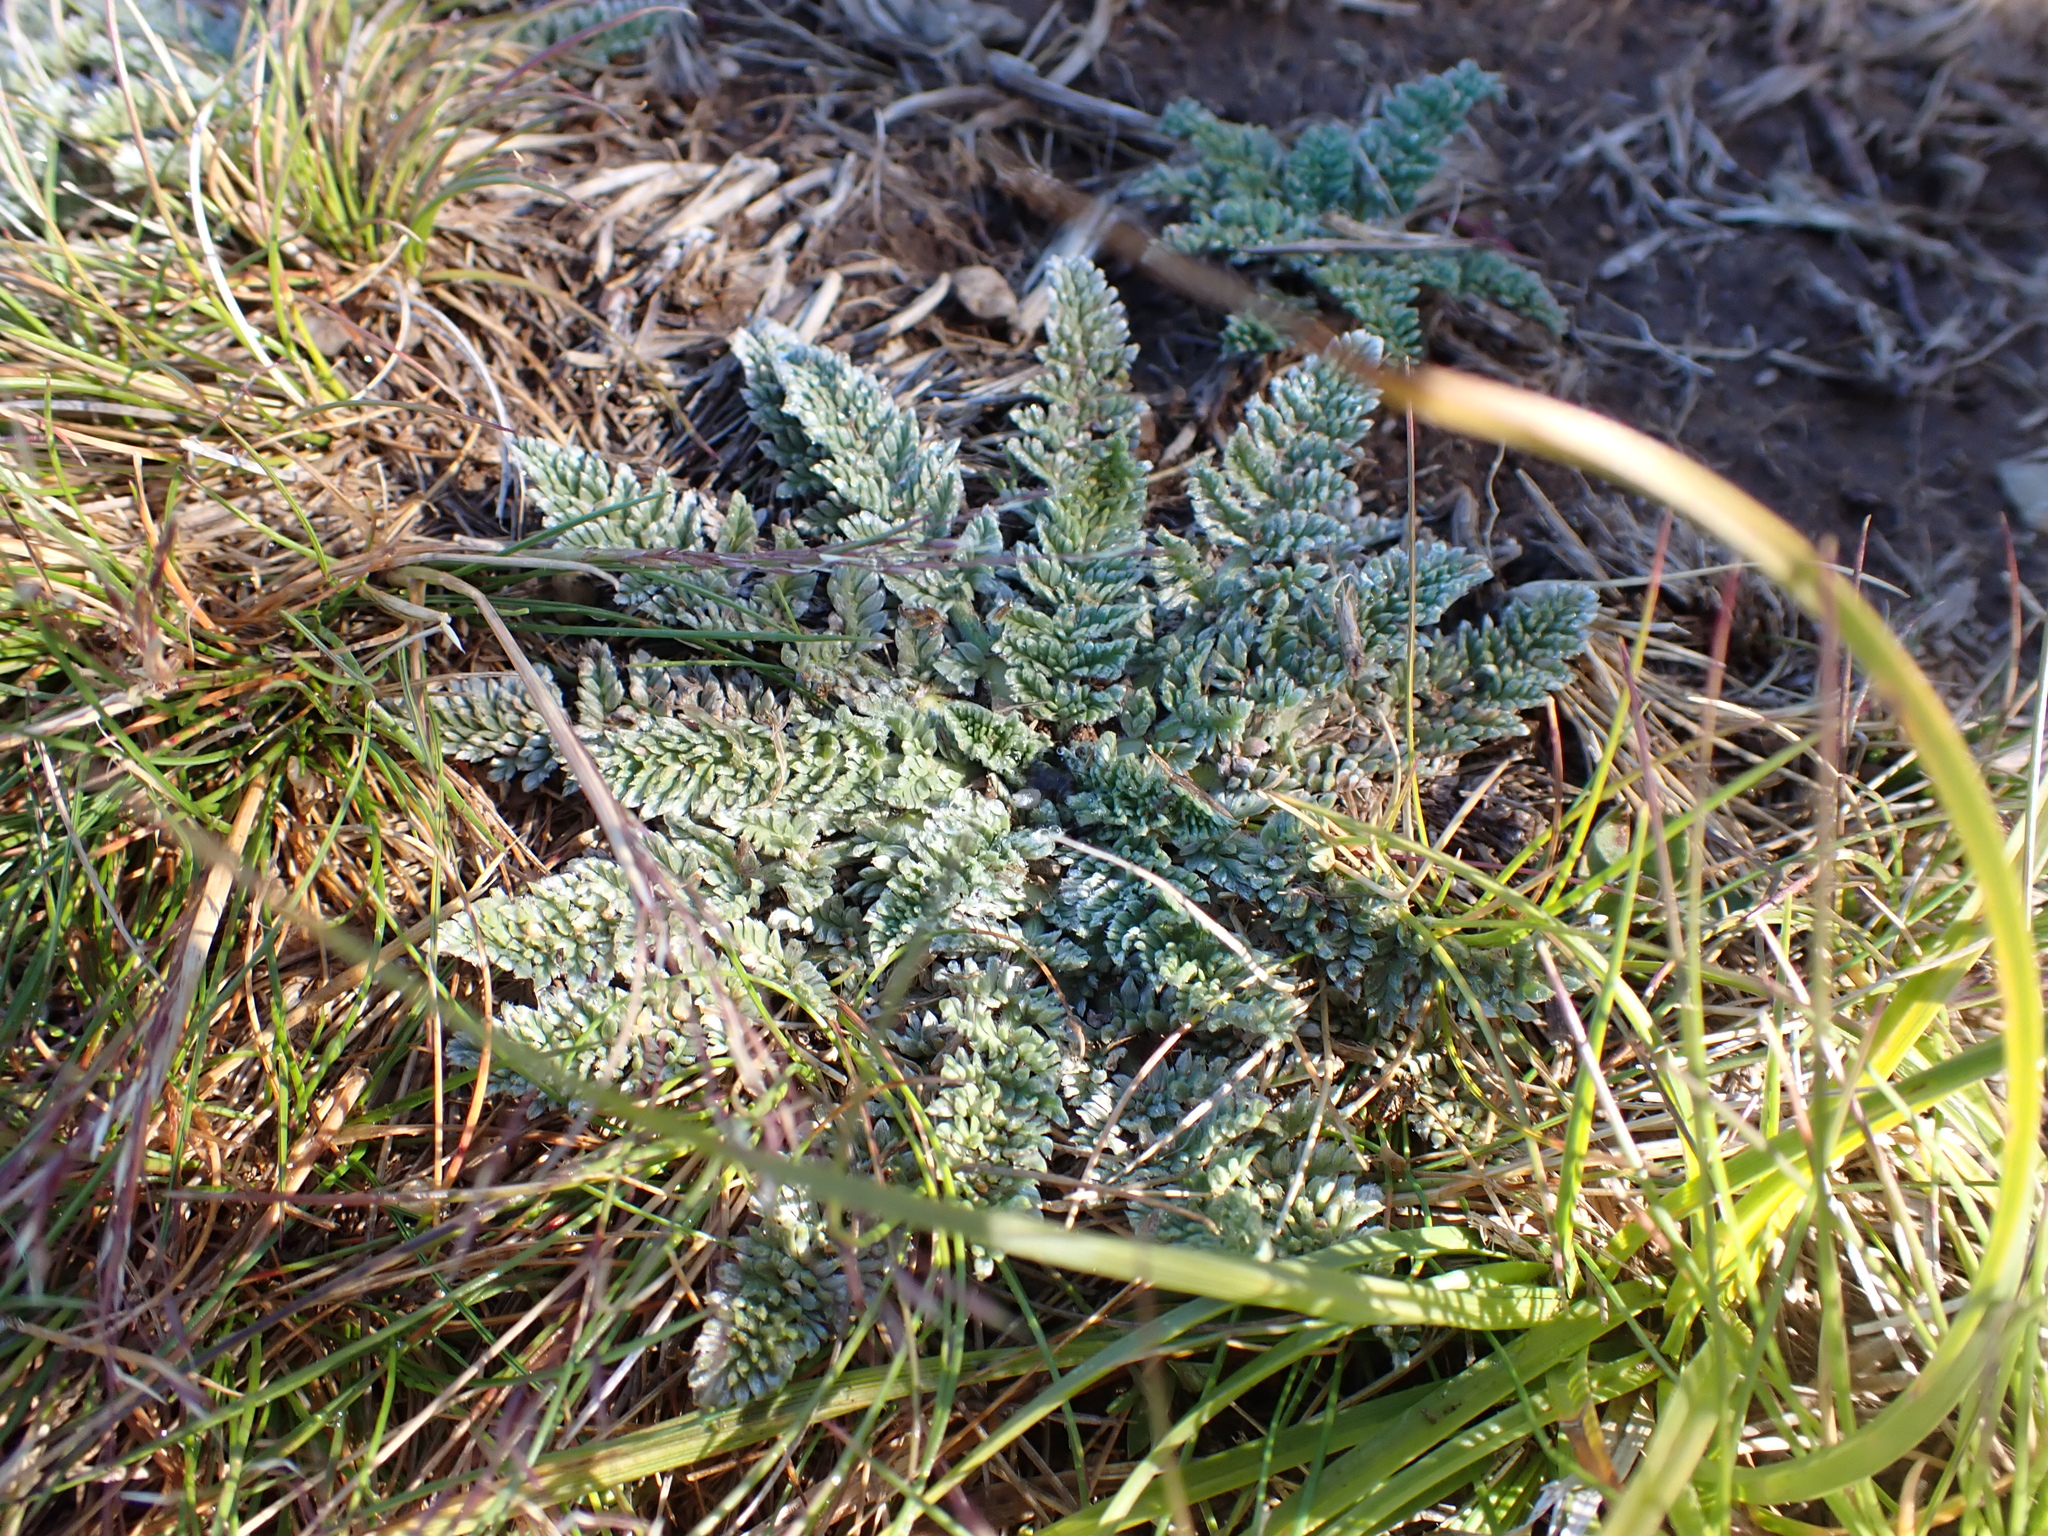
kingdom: Plantae
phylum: Tracheophyta
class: Magnoliopsida
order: Apiales
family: Apiaceae
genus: Chaerophyllum
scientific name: Chaerophyllum argenteum
